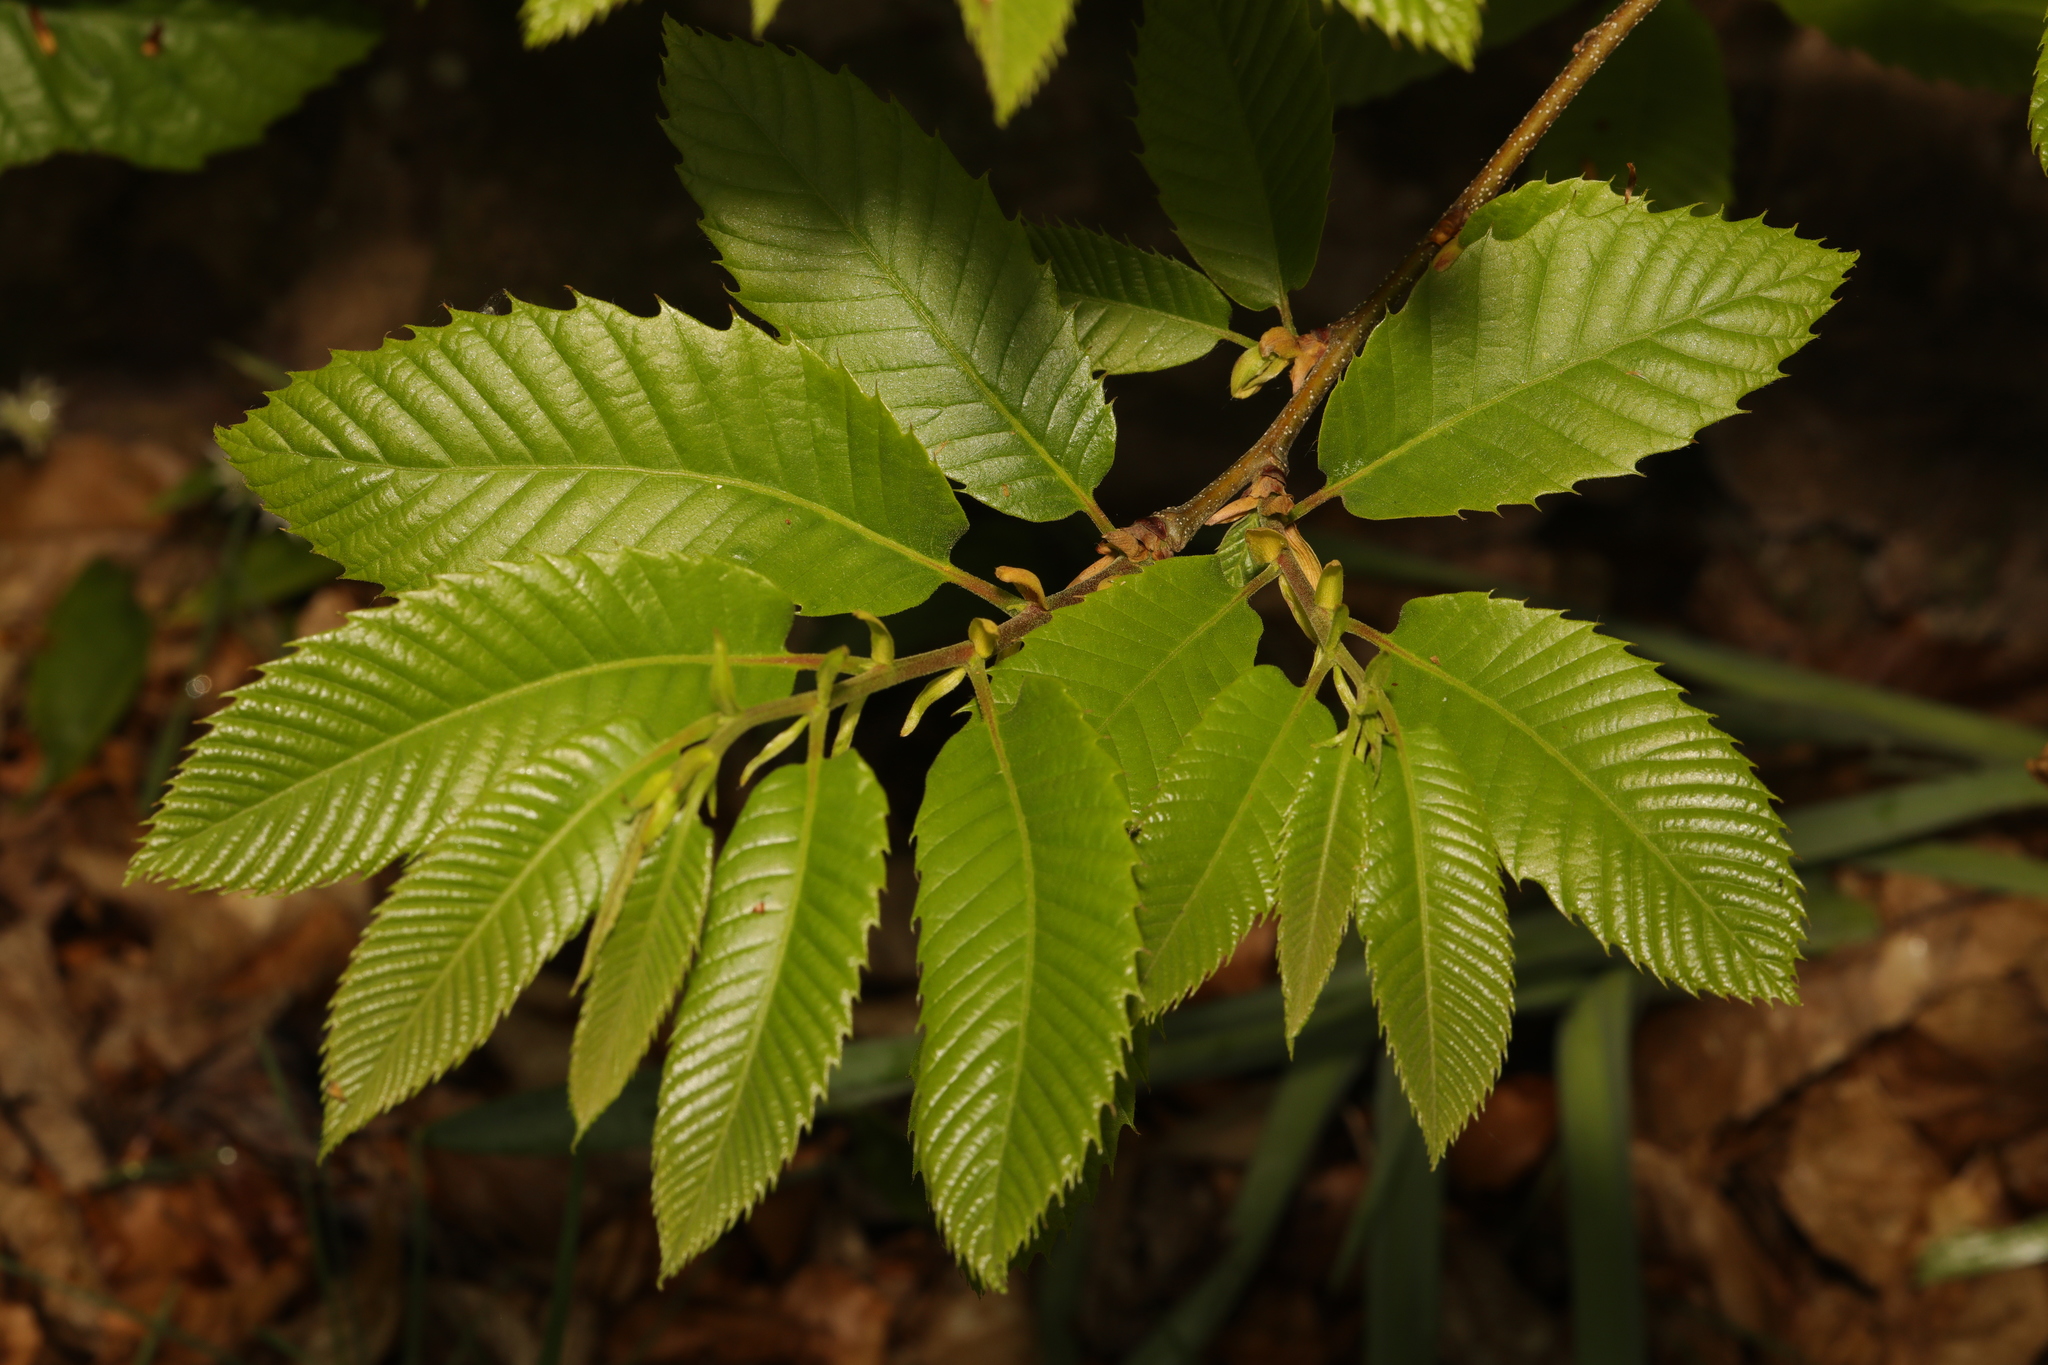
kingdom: Plantae
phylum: Tracheophyta
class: Magnoliopsida
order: Fagales
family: Fagaceae
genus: Castanea
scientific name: Castanea sativa
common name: Sweet chestnut
